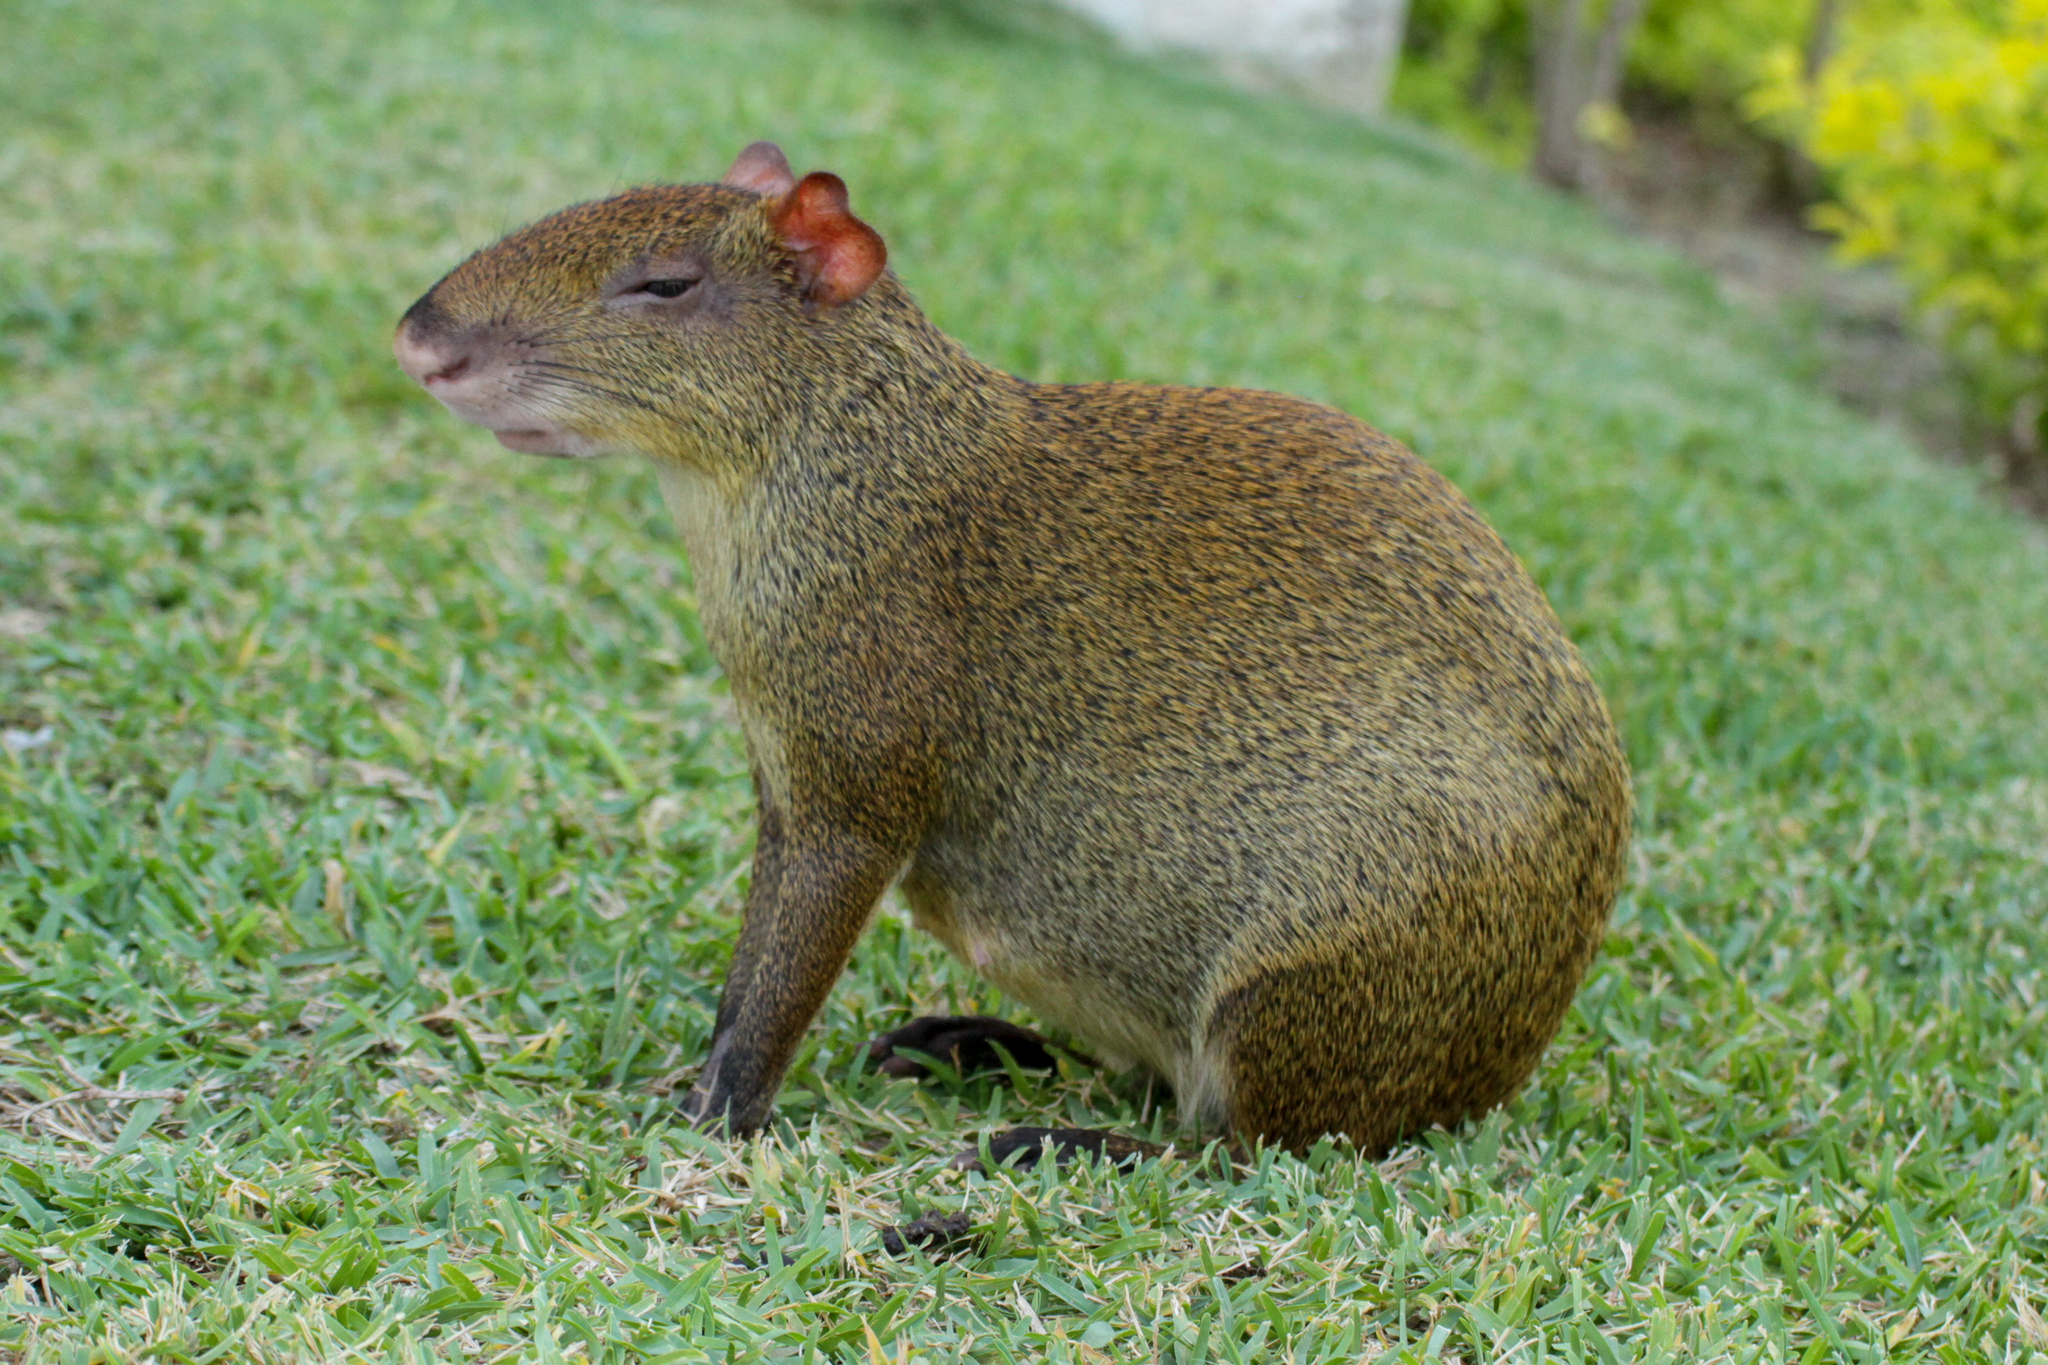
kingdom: Animalia
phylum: Chordata
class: Mammalia
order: Rodentia
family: Dasyproctidae
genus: Dasyprocta
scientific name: Dasyprocta punctata
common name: Central american agouti
